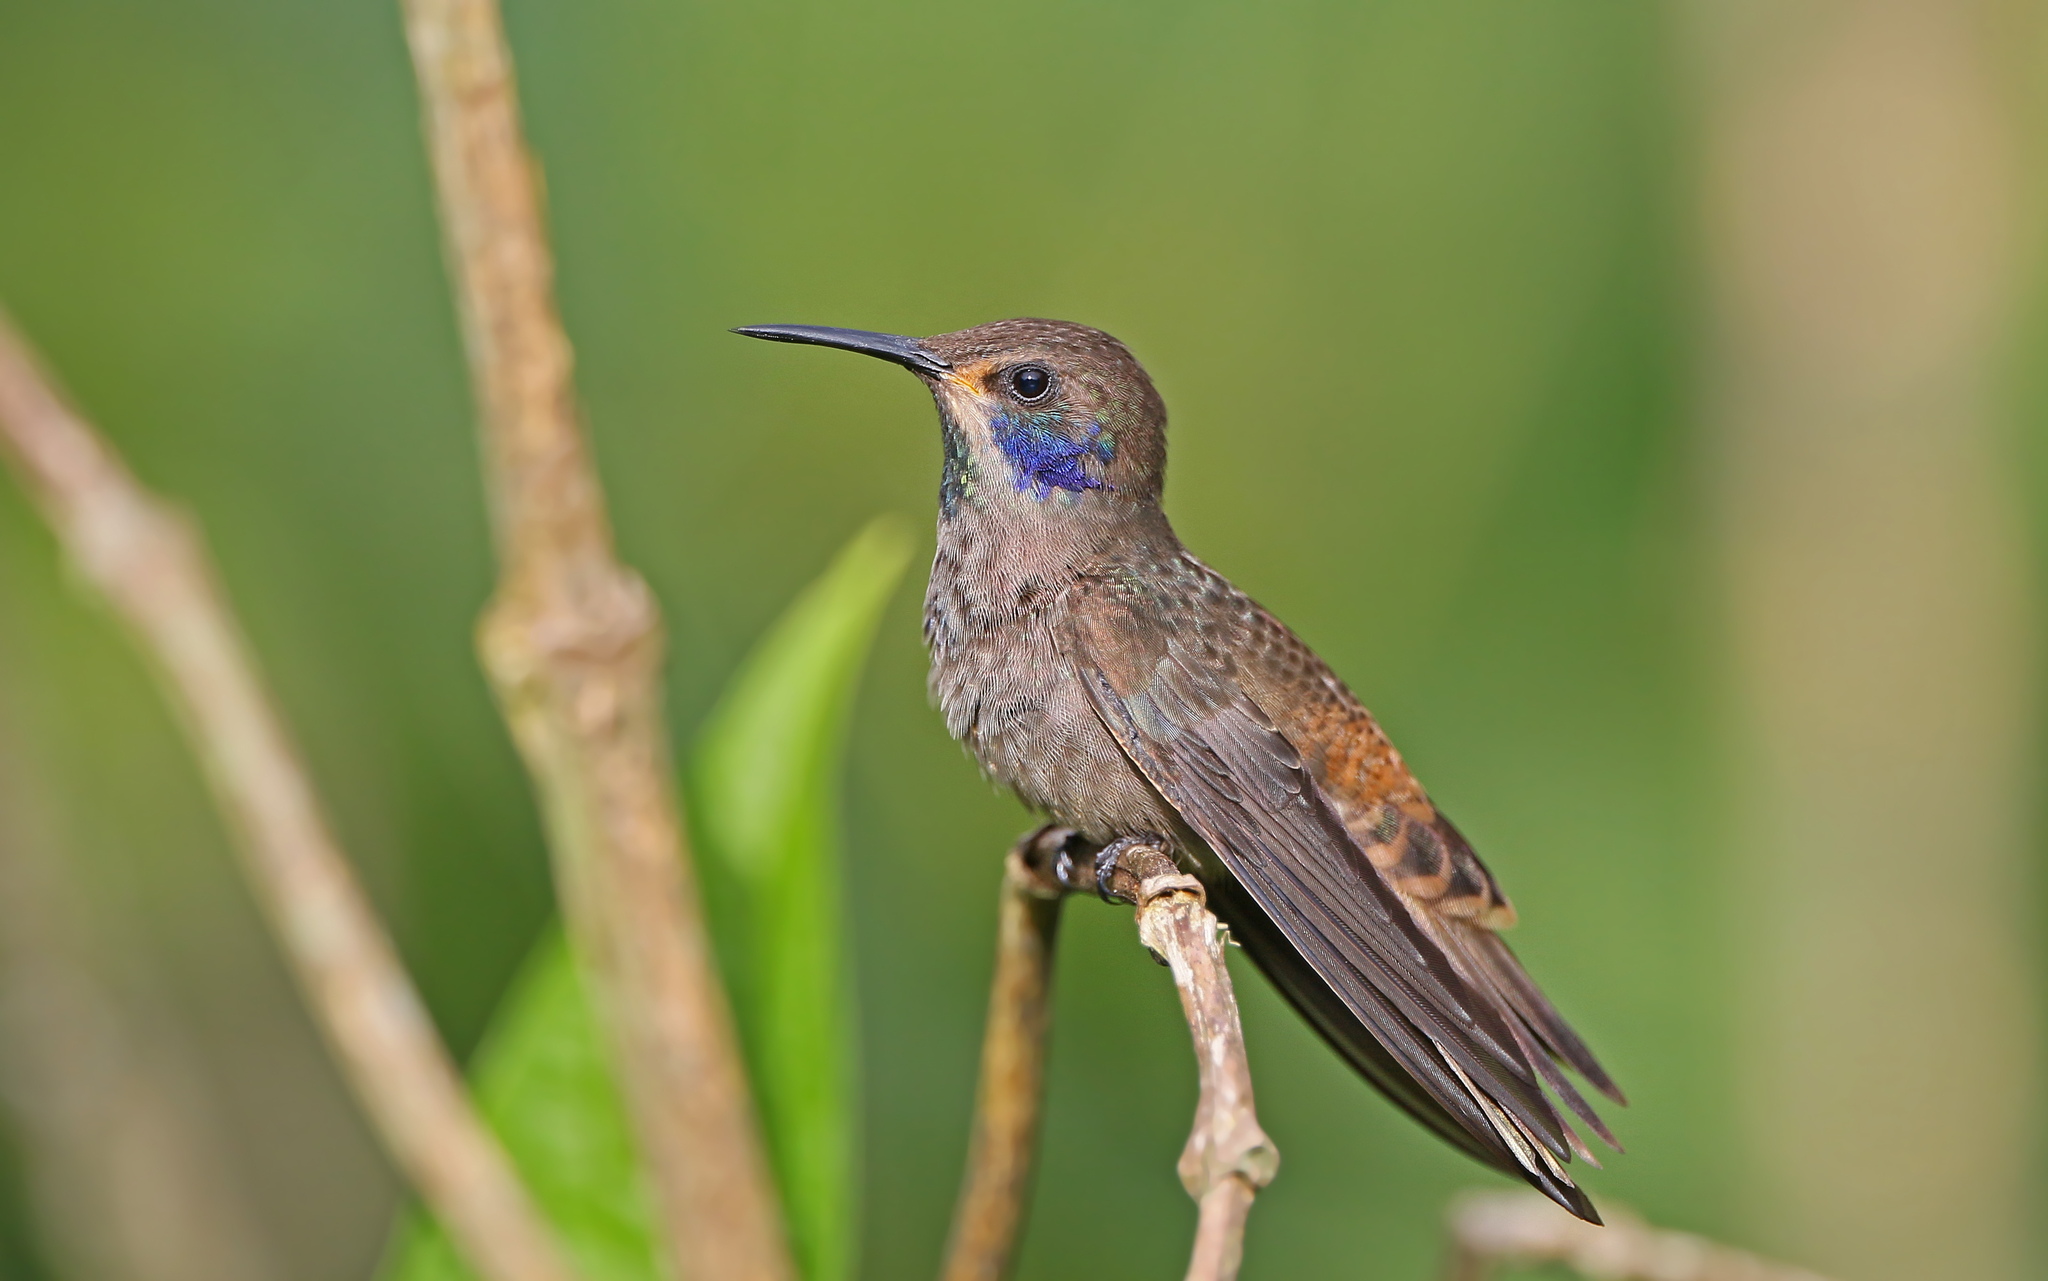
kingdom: Animalia
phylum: Chordata
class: Aves
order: Apodiformes
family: Trochilidae
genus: Colibri
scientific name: Colibri delphinae
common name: Brown violetear
